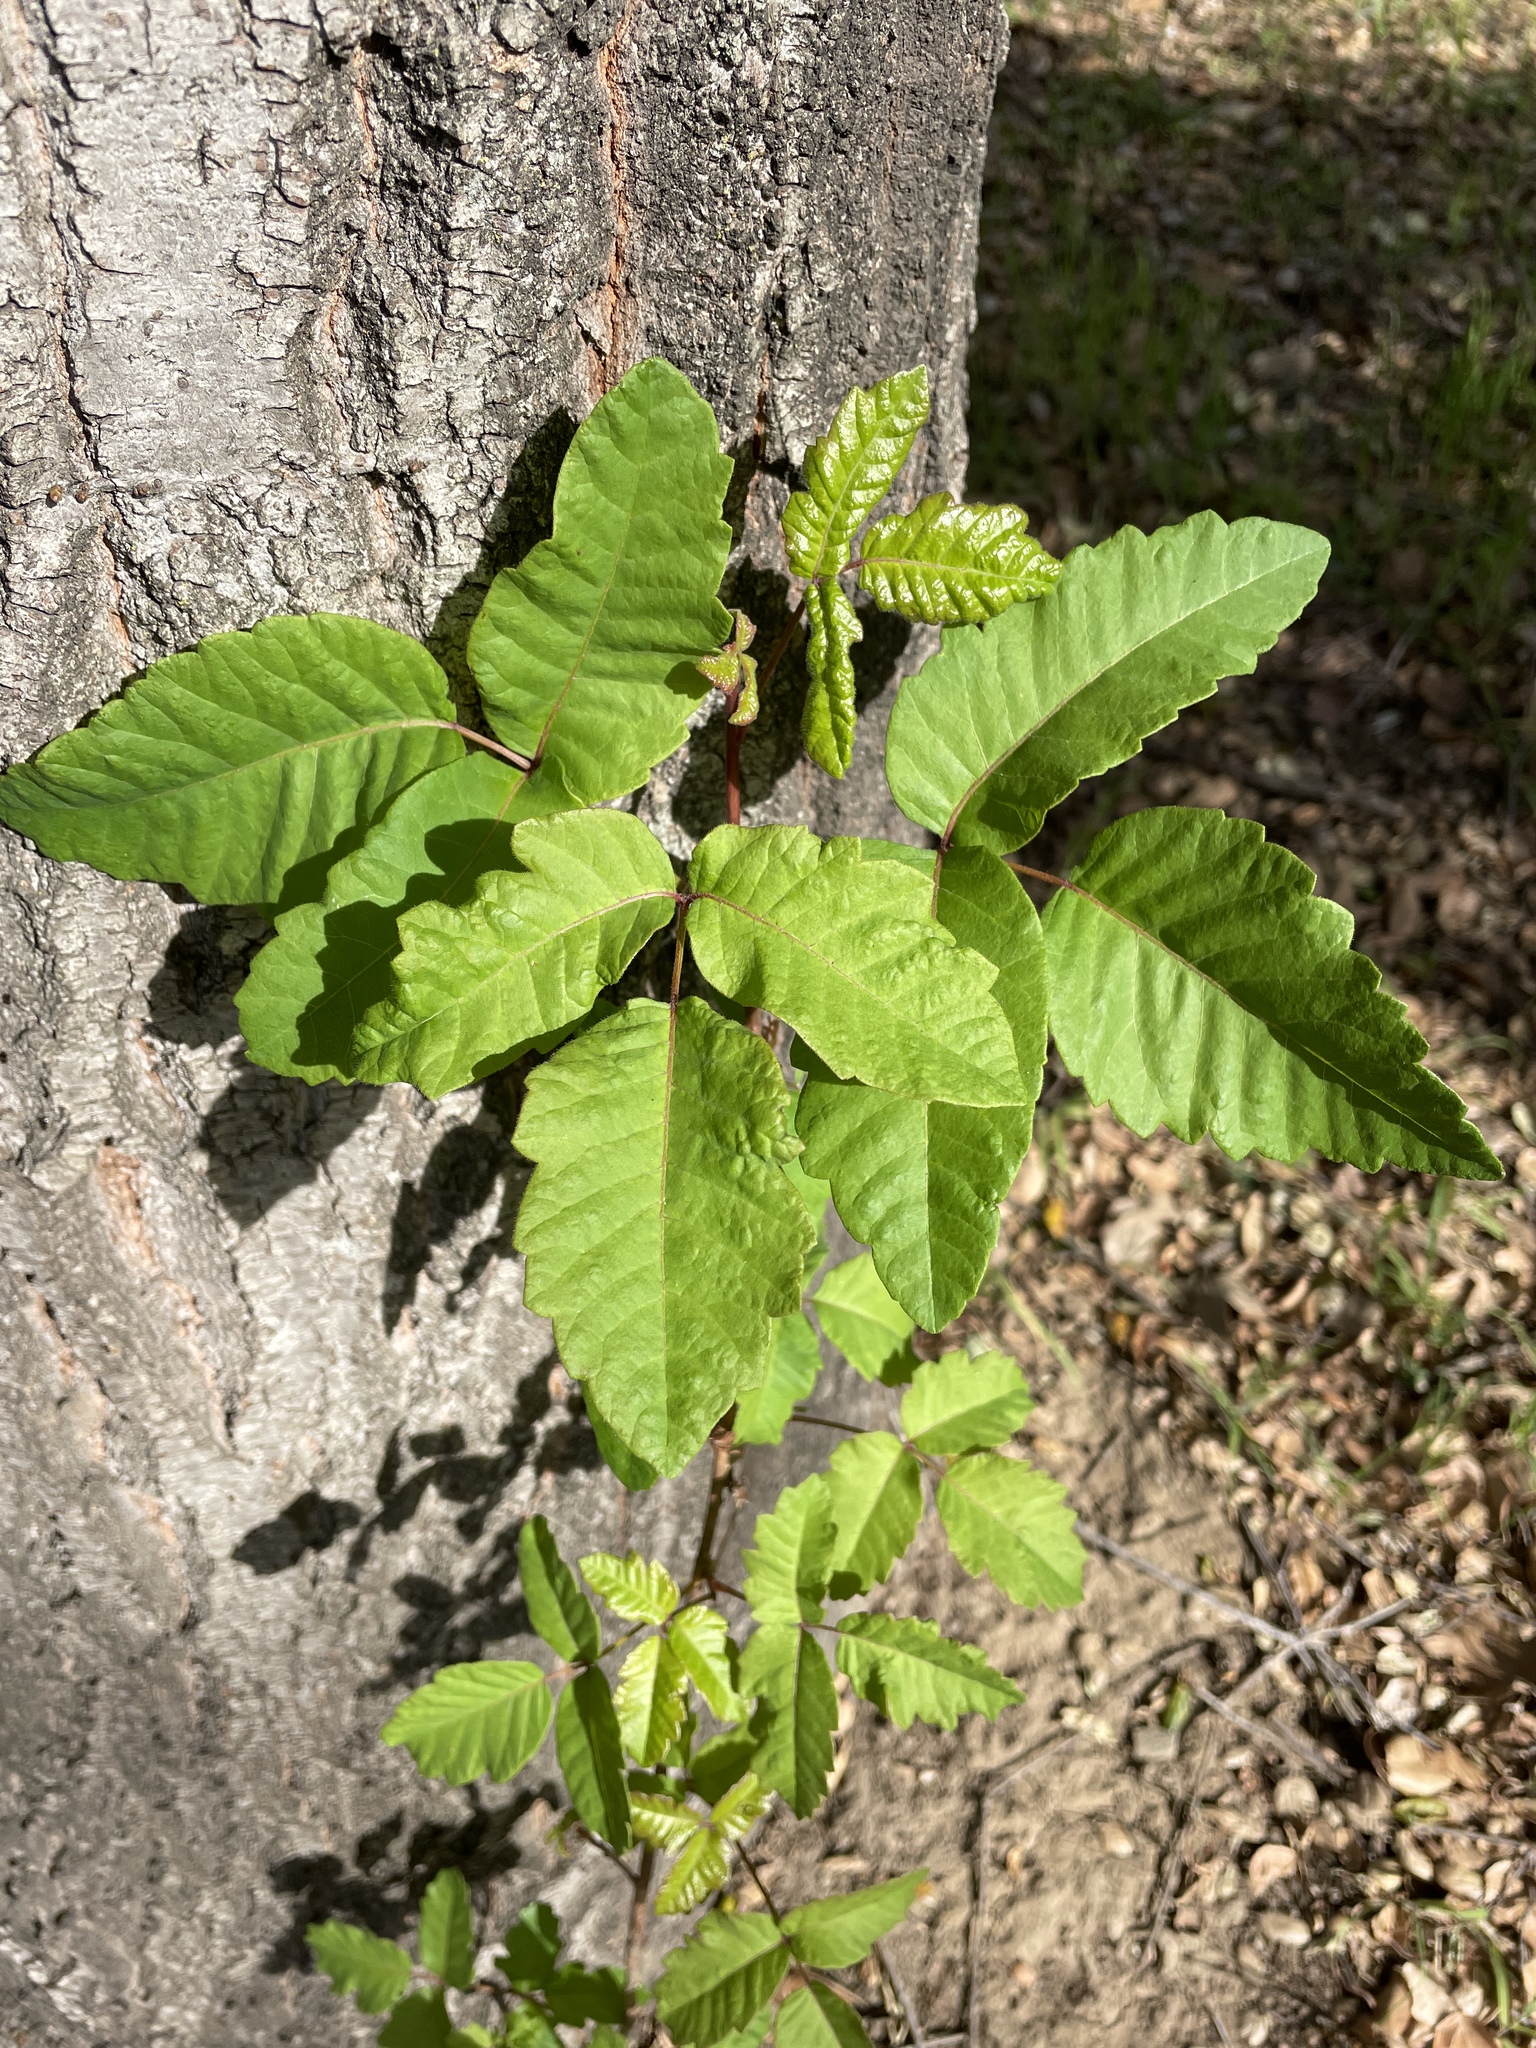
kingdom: Plantae
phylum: Tracheophyta
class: Magnoliopsida
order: Sapindales
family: Anacardiaceae
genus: Toxicodendron
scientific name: Toxicodendron diversilobum
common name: Pacific poison-oak
